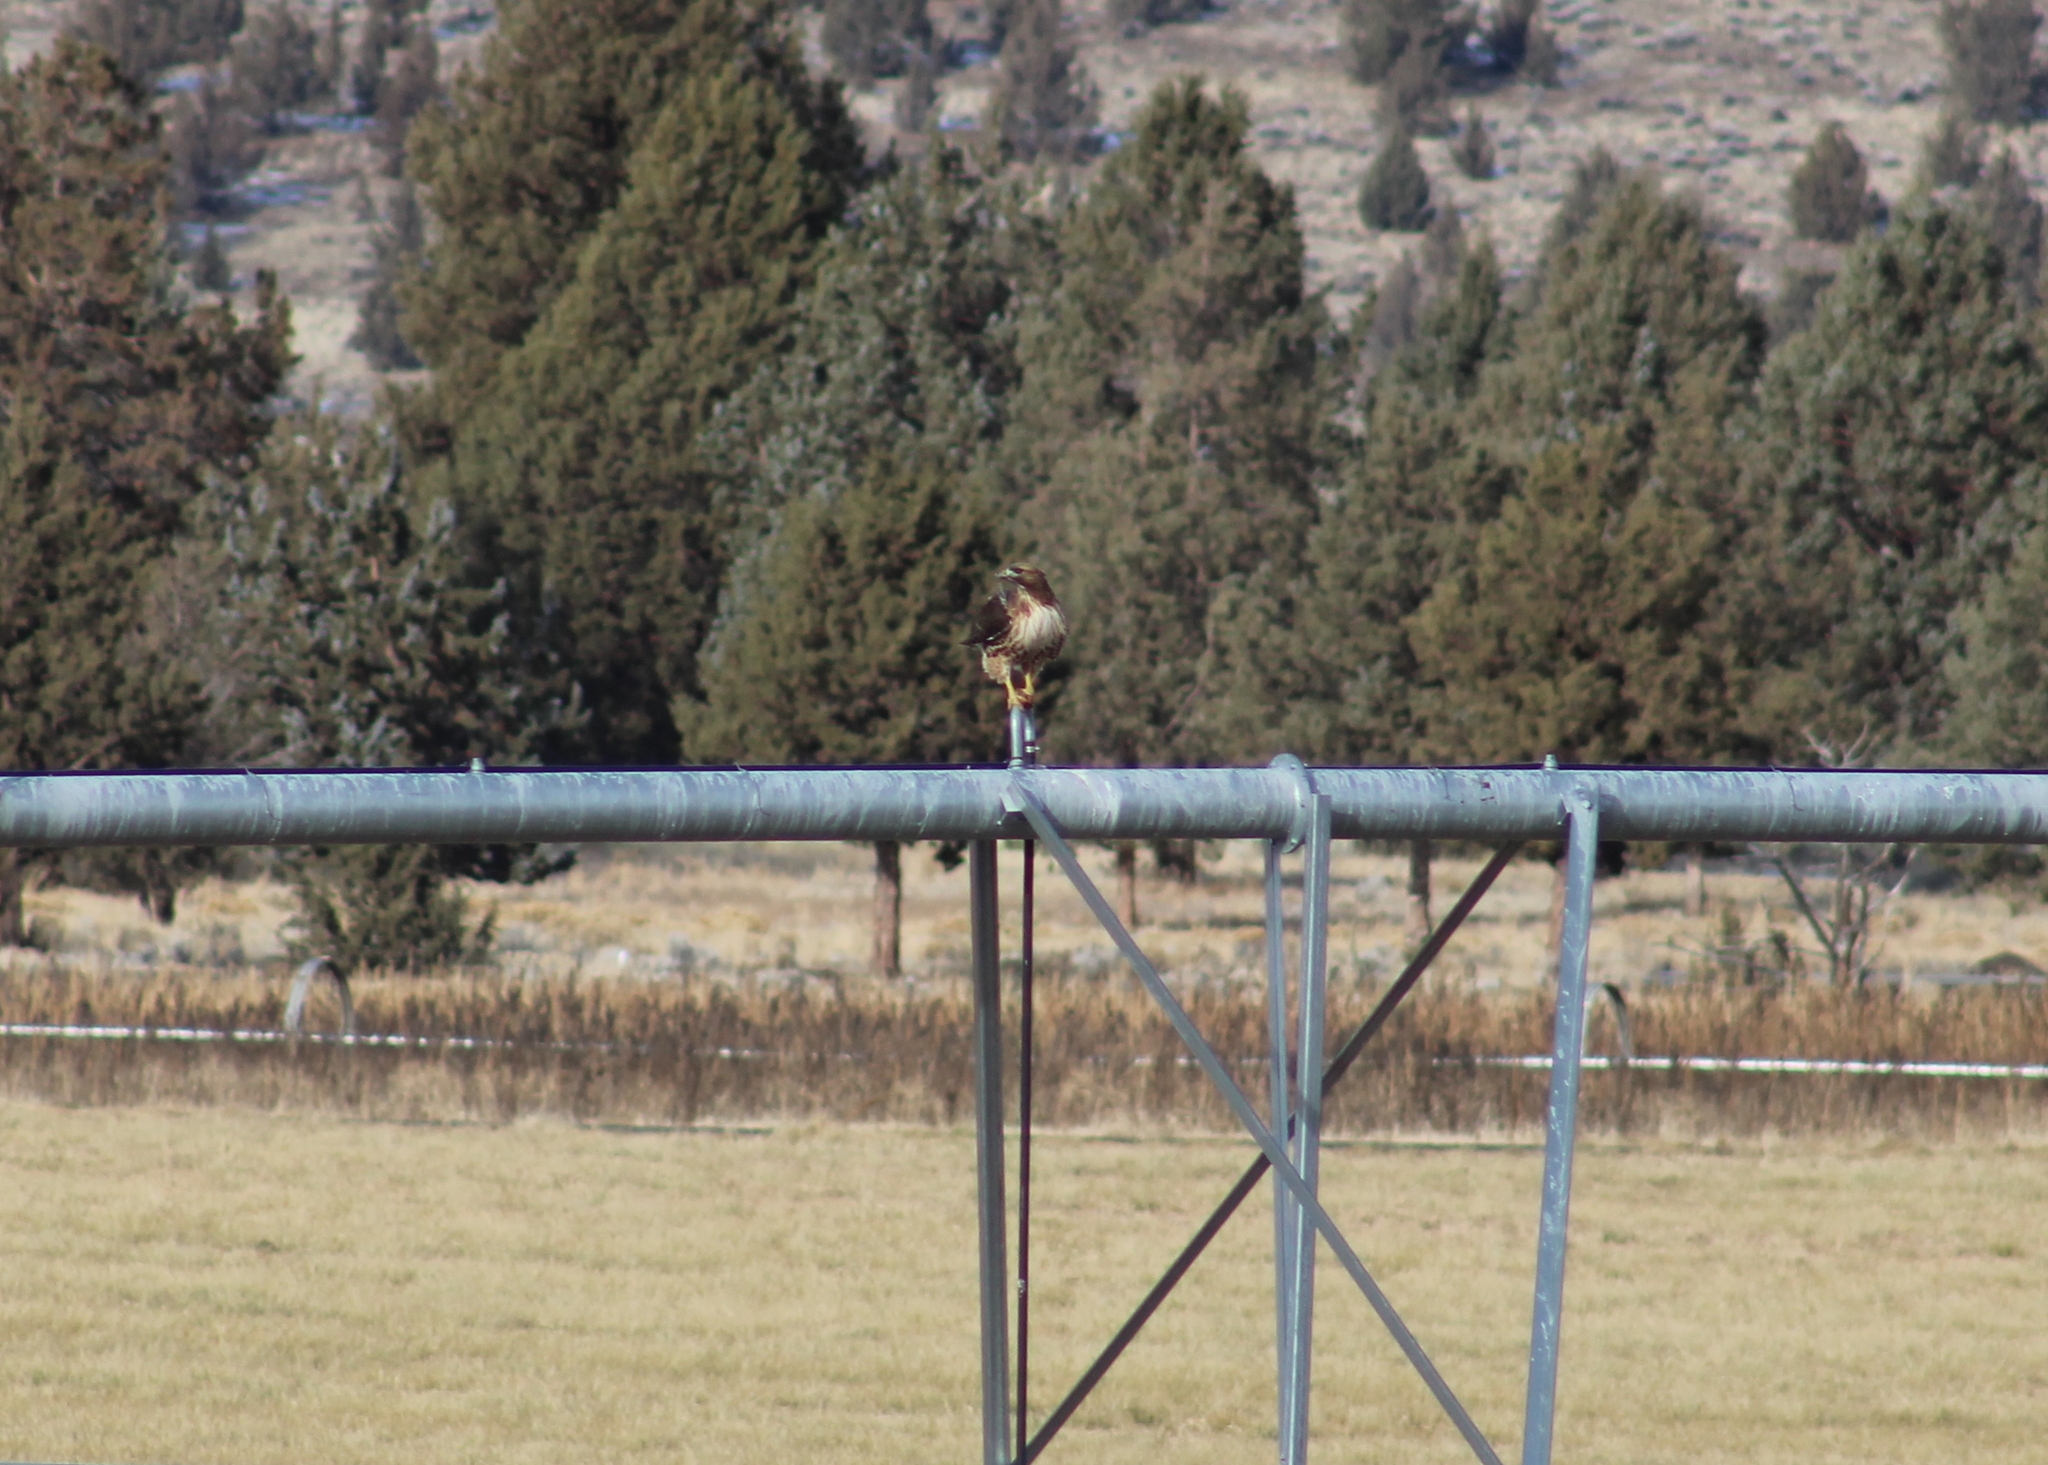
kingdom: Animalia
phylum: Chordata
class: Aves
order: Accipitriformes
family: Accipitridae
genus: Buteo
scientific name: Buteo jamaicensis
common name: Red-tailed hawk
